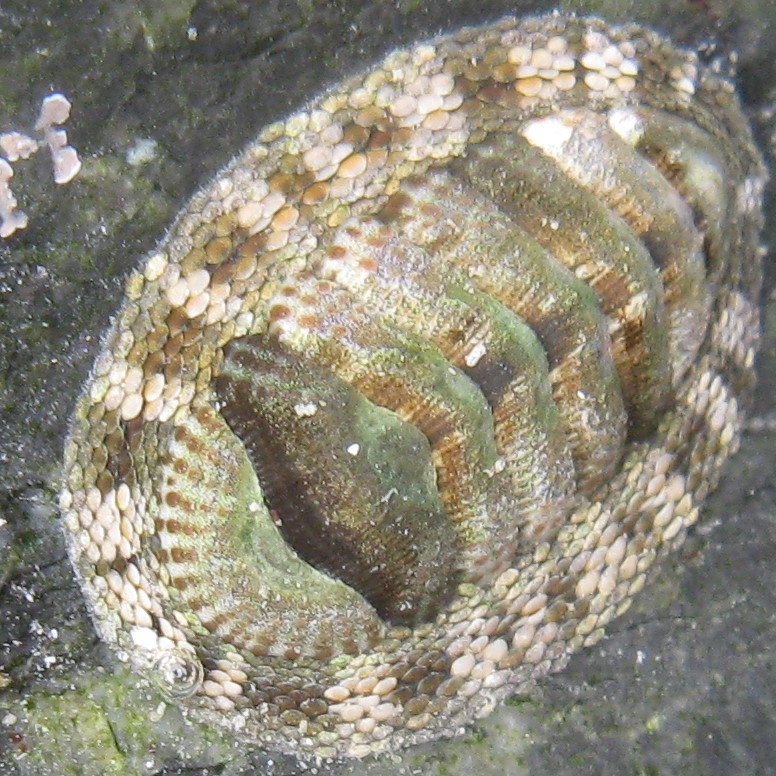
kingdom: Animalia
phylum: Mollusca
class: Polyplacophora
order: Chitonida
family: Chitonidae
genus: Sypharochiton
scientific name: Sypharochiton pelliserpentis
